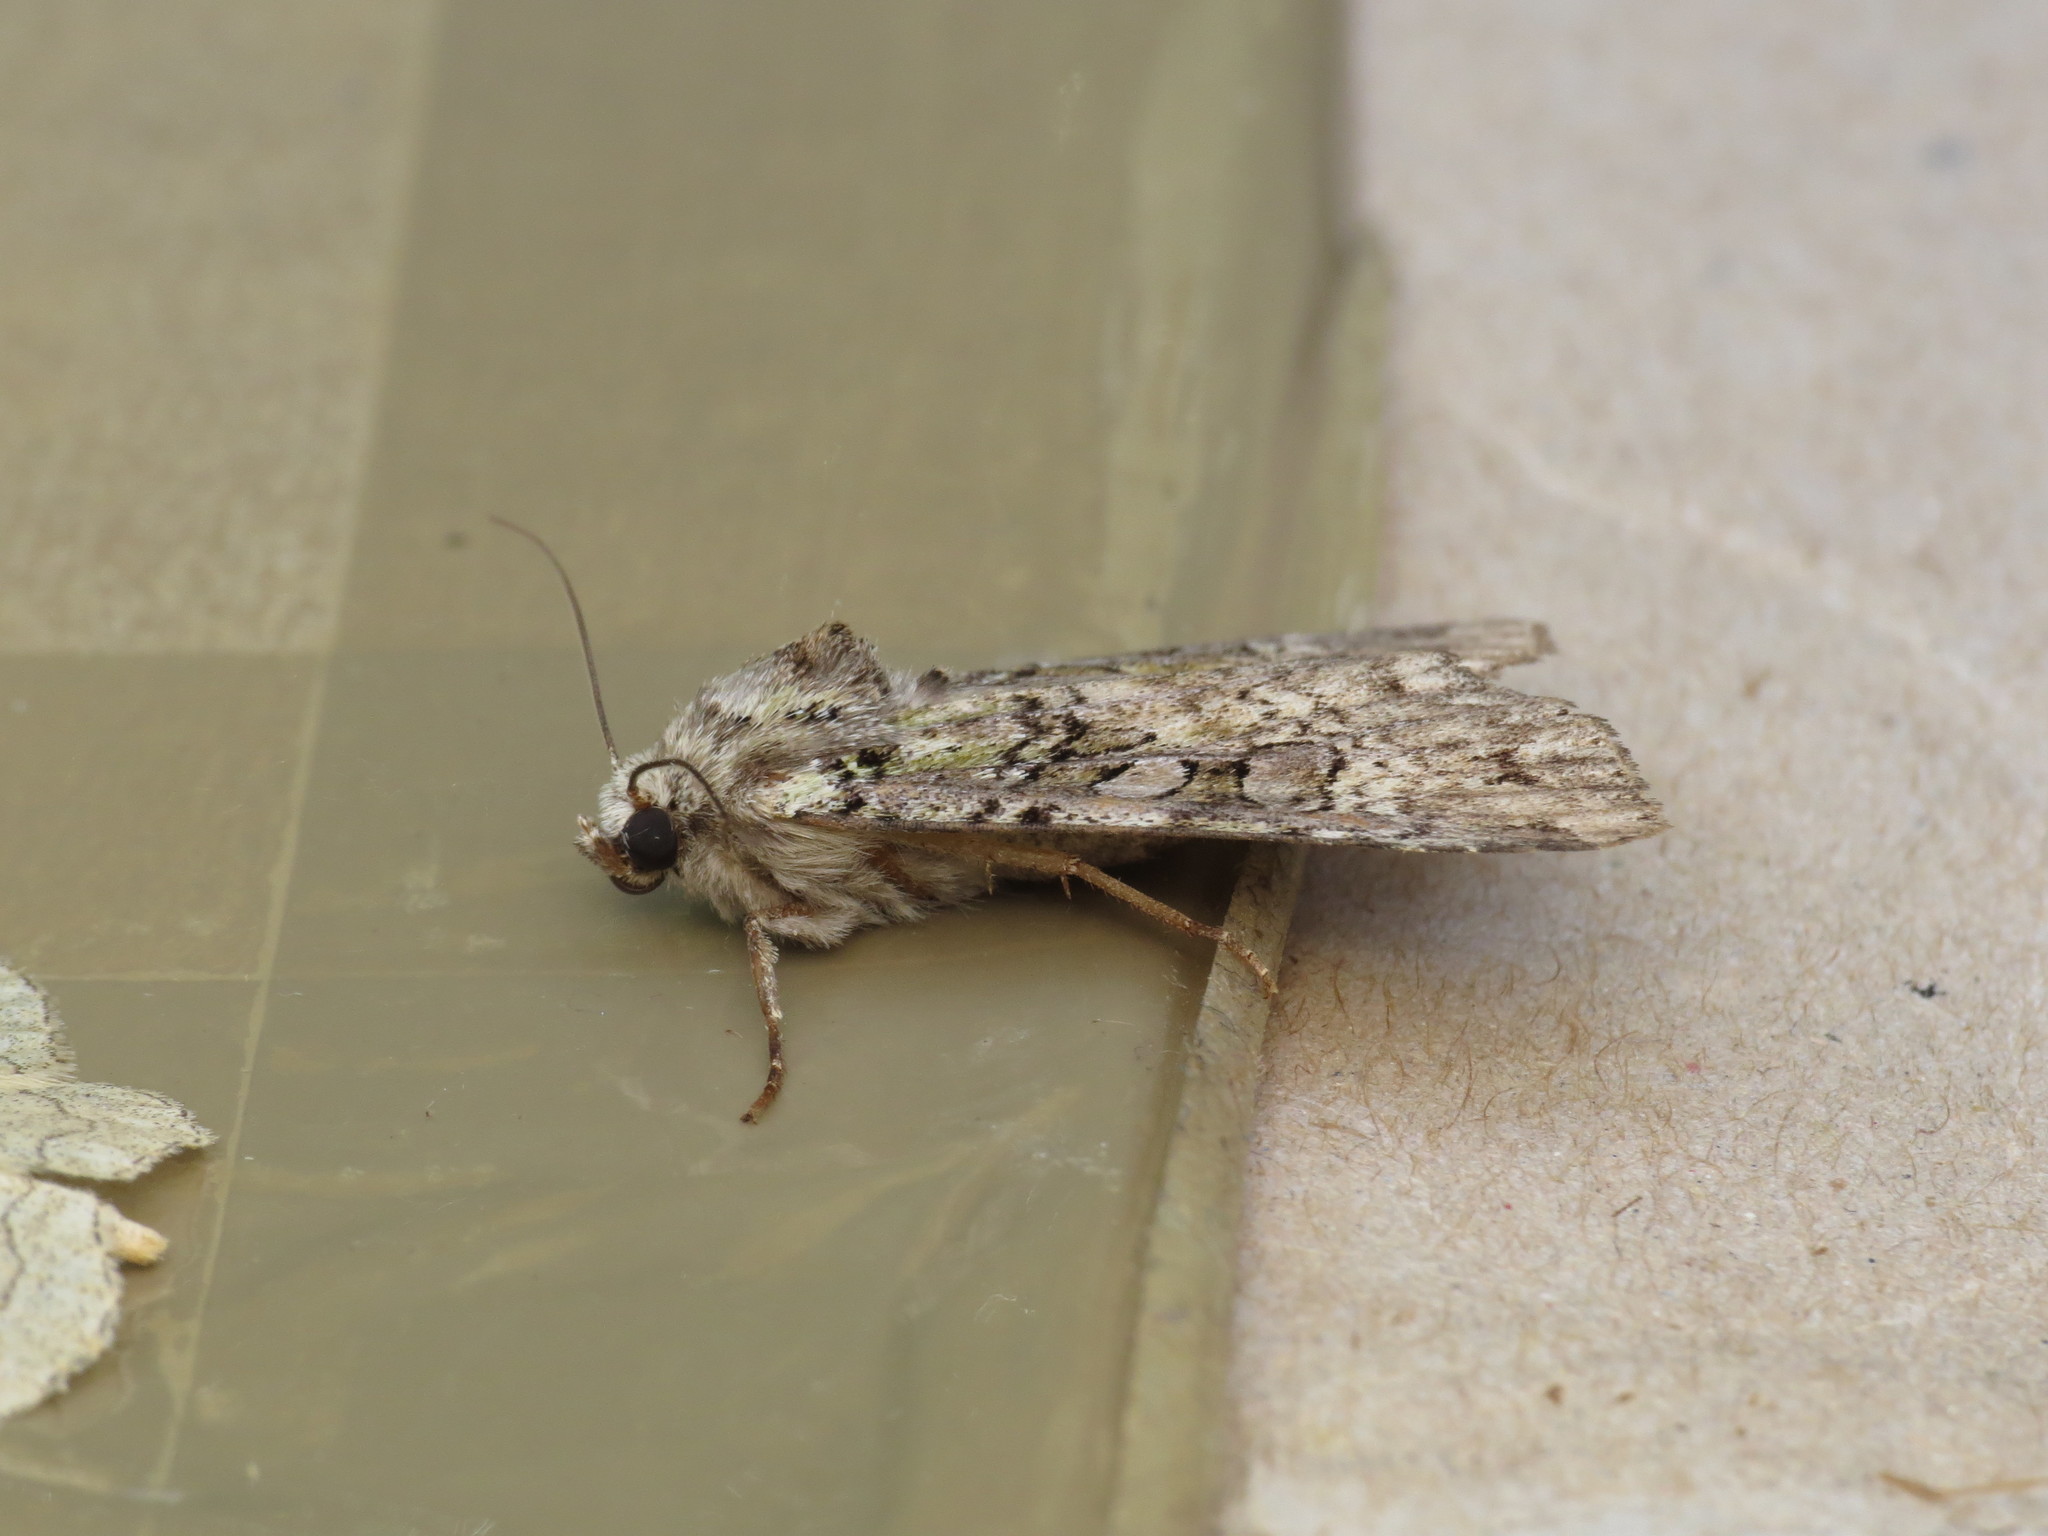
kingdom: Animalia
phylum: Arthropoda
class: Insecta
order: Lepidoptera
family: Noctuidae
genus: Anaplectoides
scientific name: Anaplectoides prasina
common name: Green arches
